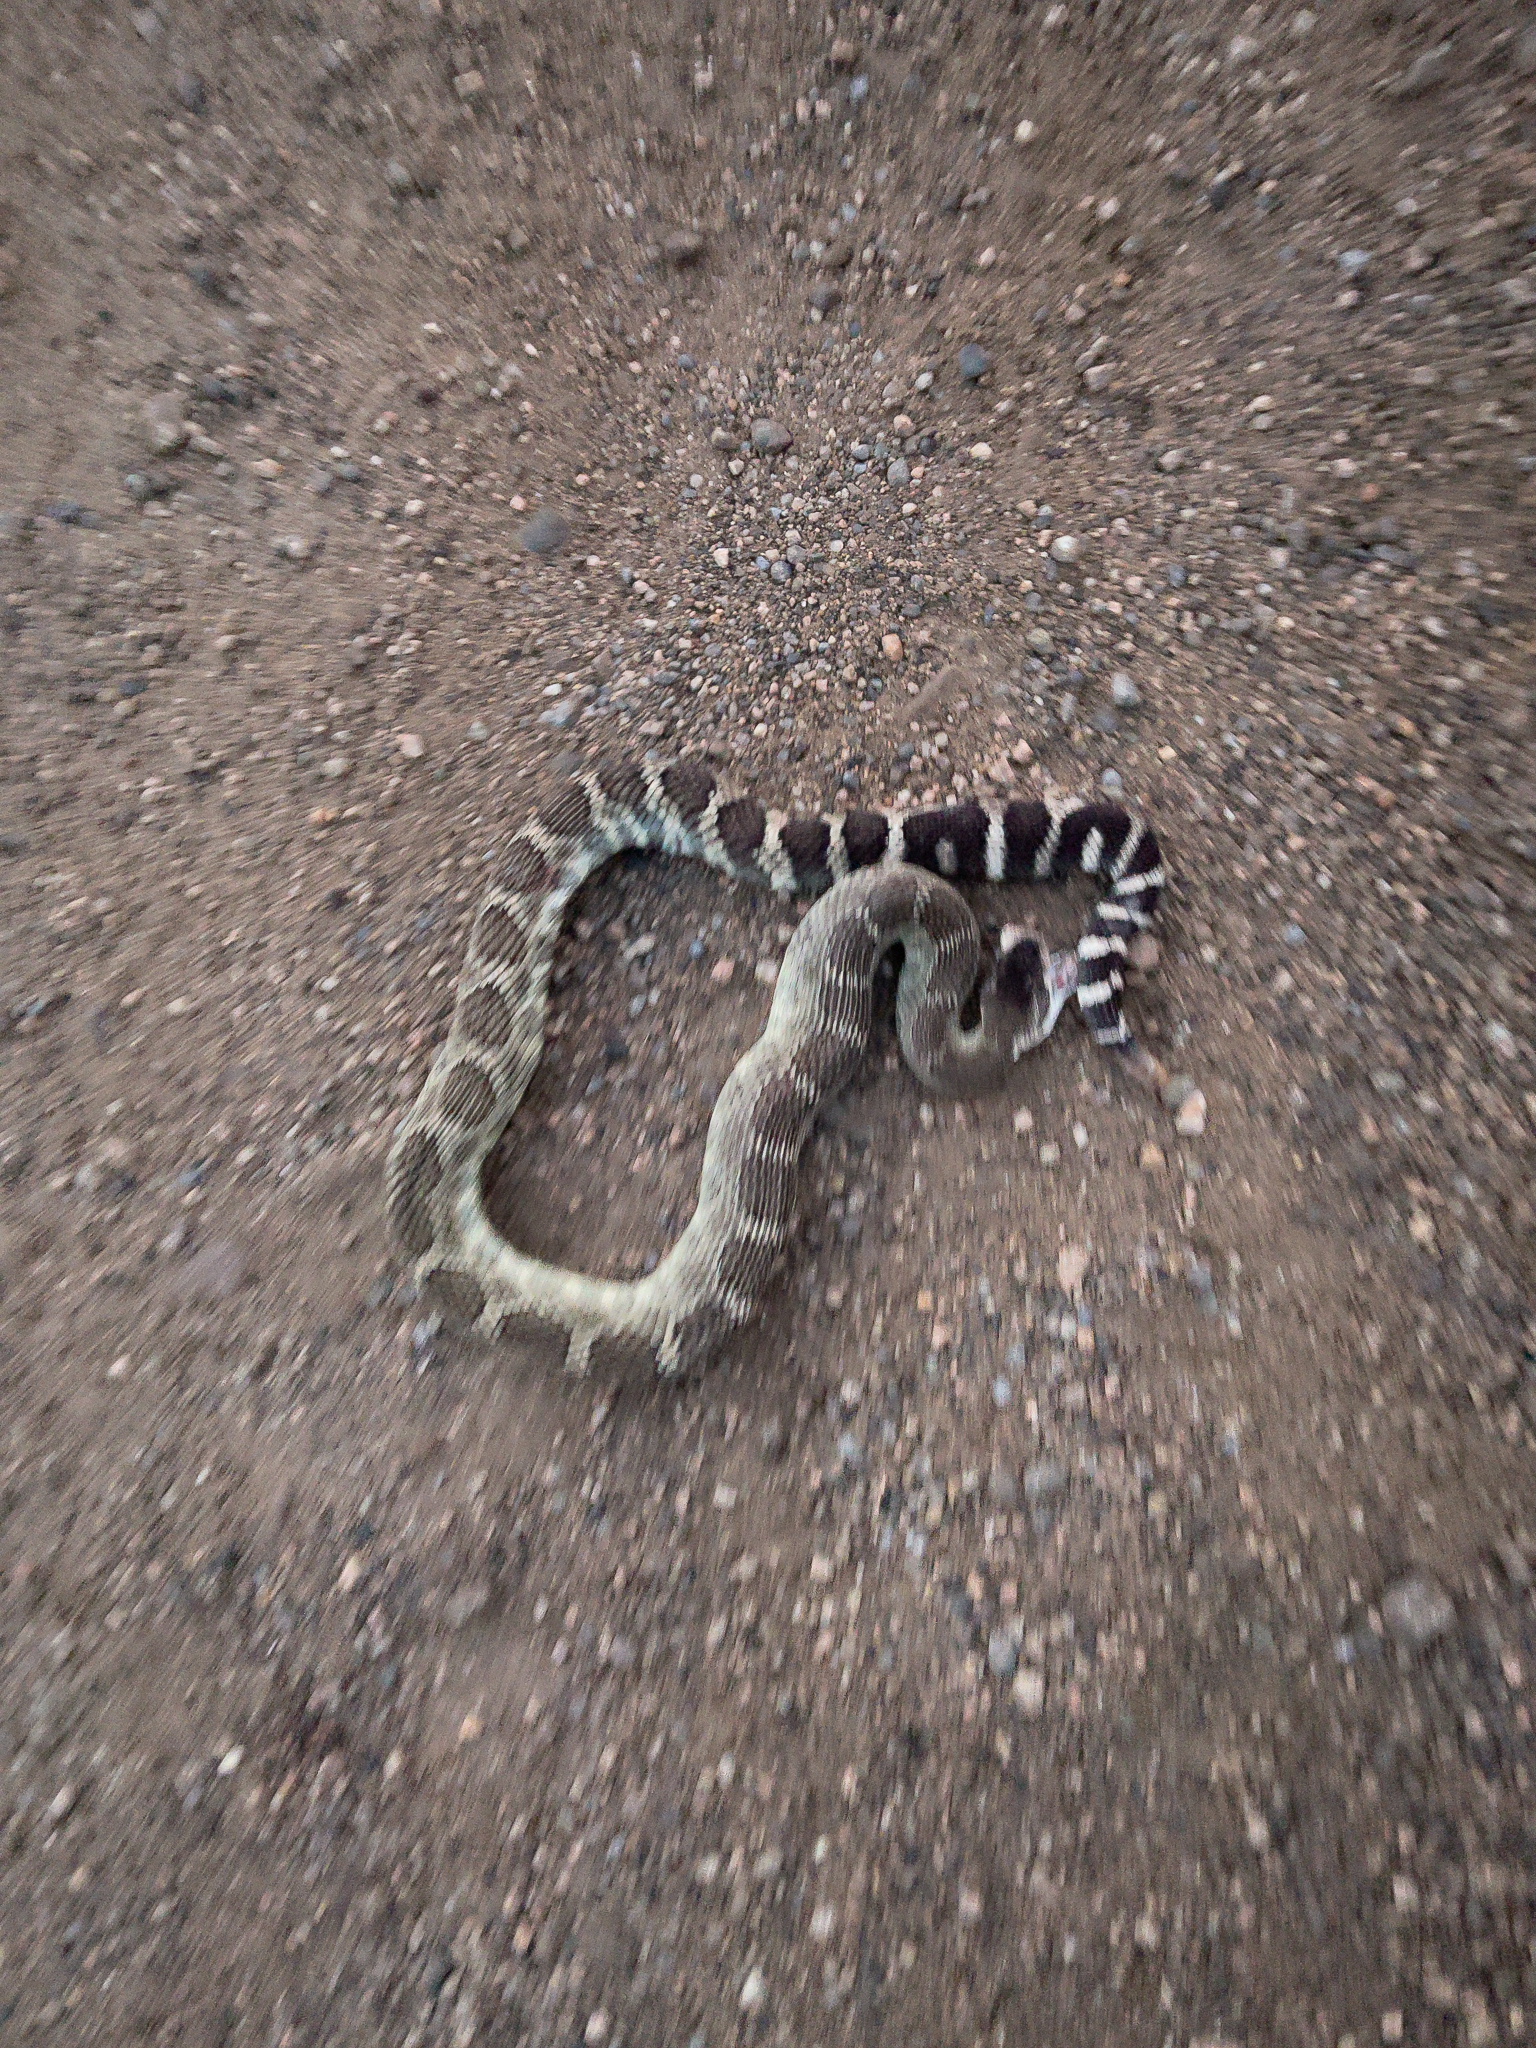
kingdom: Animalia
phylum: Chordata
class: Squamata
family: Viperidae
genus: Crotalus
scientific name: Crotalus oreganus
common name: Abyssus
